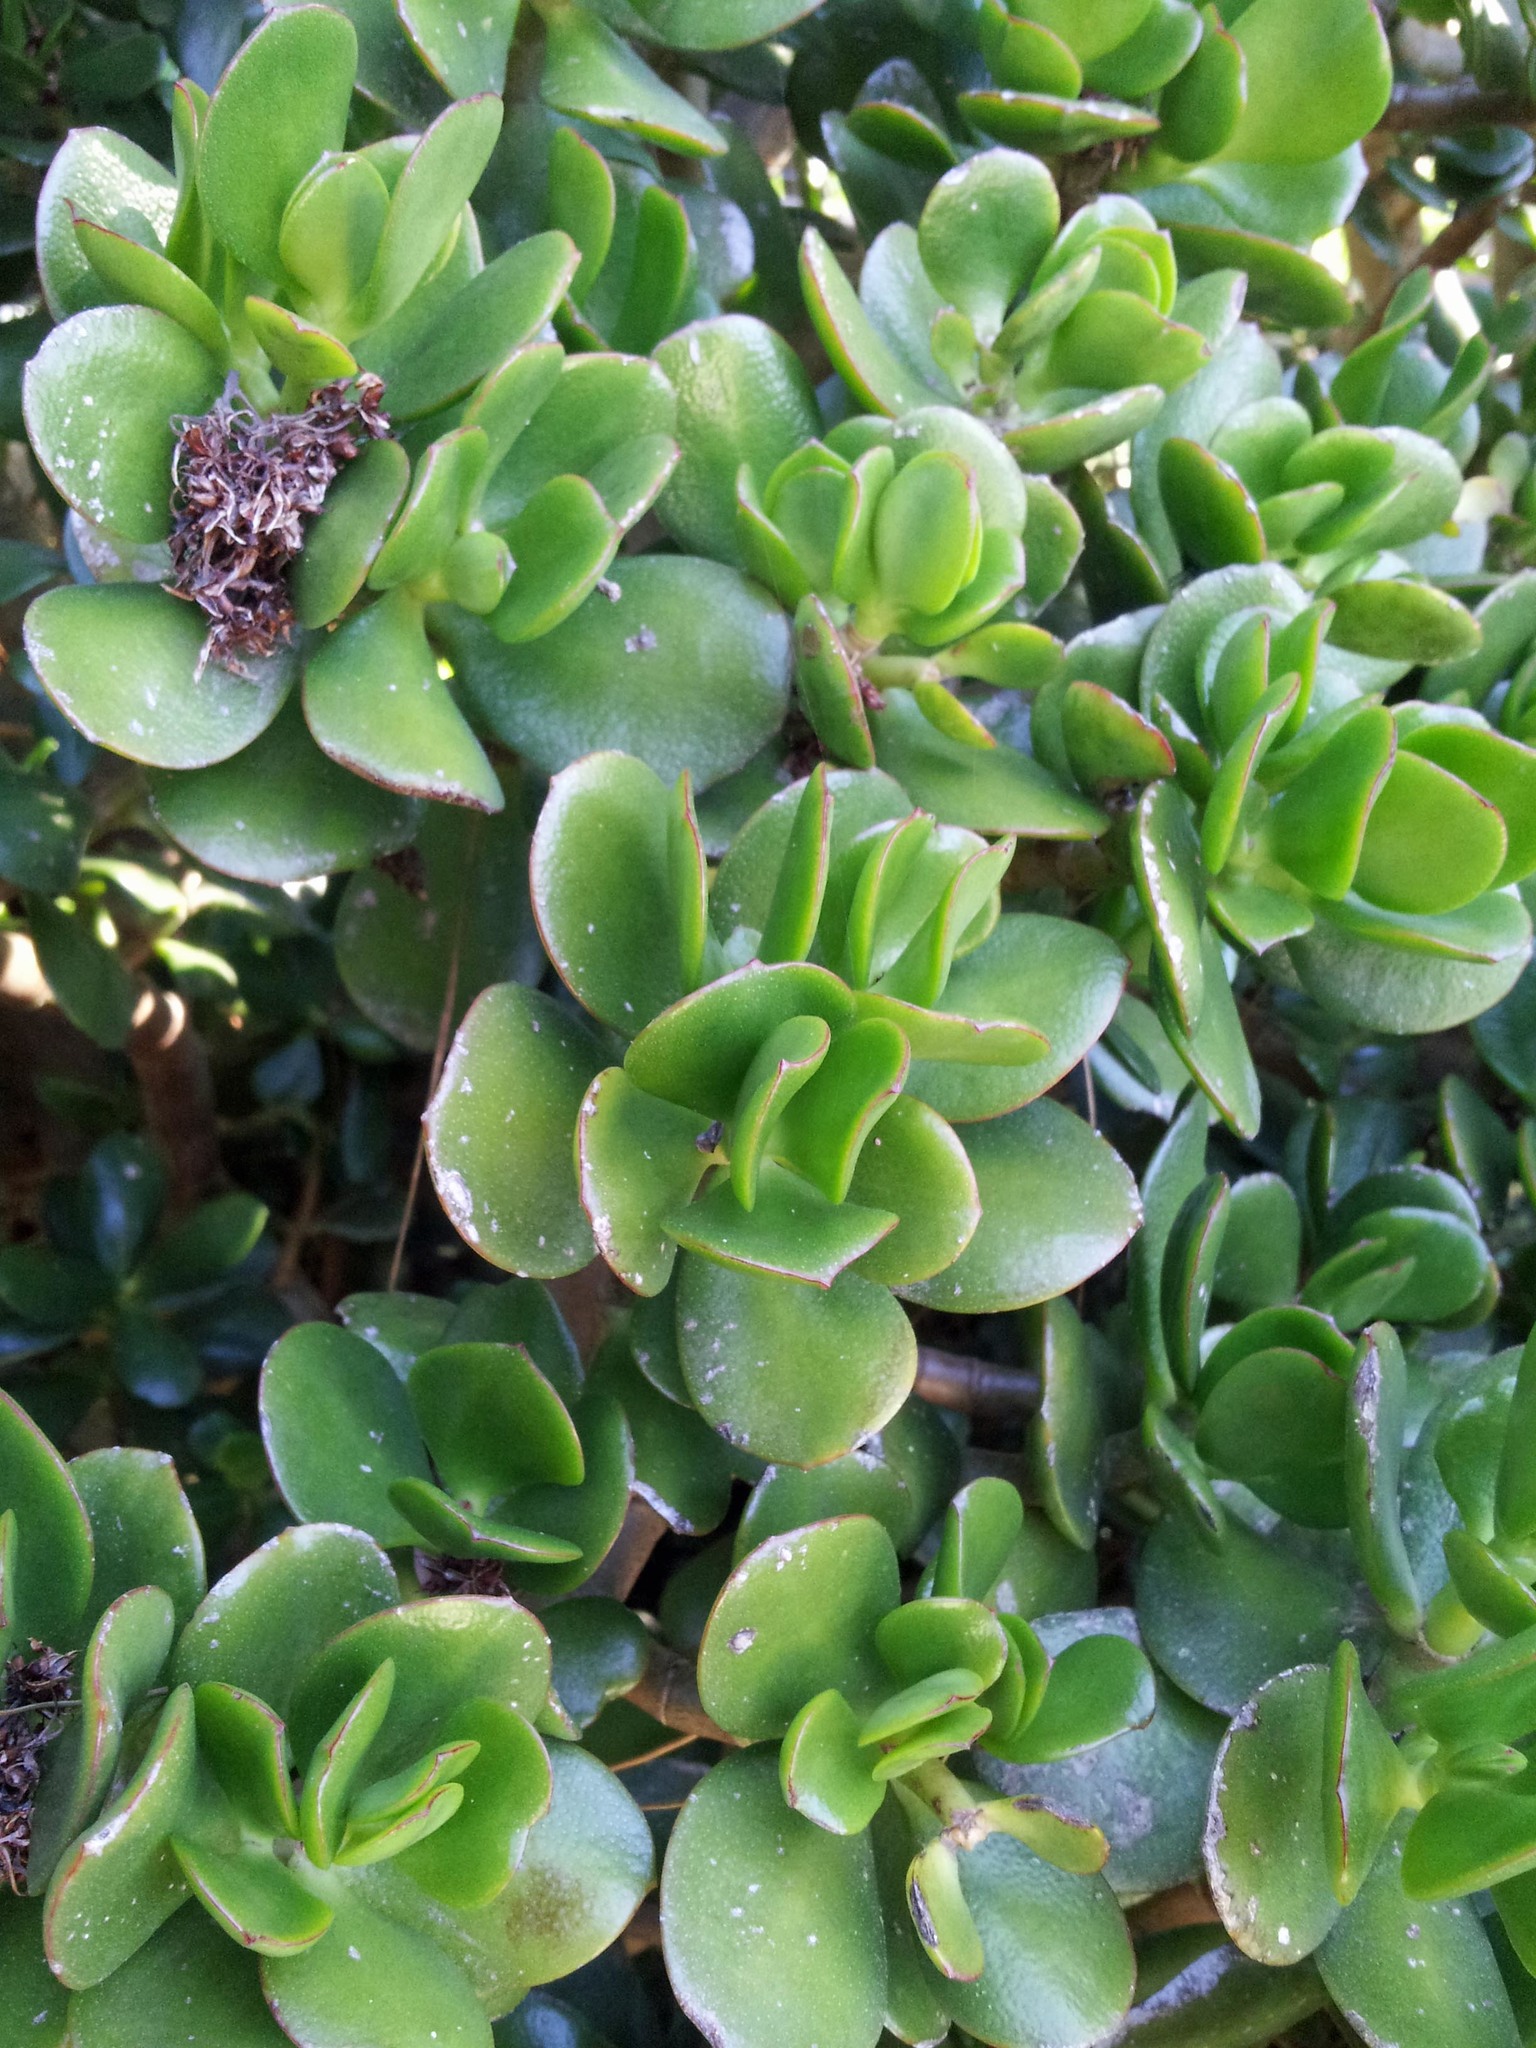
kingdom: Plantae
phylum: Tracheophyta
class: Magnoliopsida
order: Saxifragales
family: Crassulaceae
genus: Crassula
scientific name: Crassula ovata
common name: Jade plant
